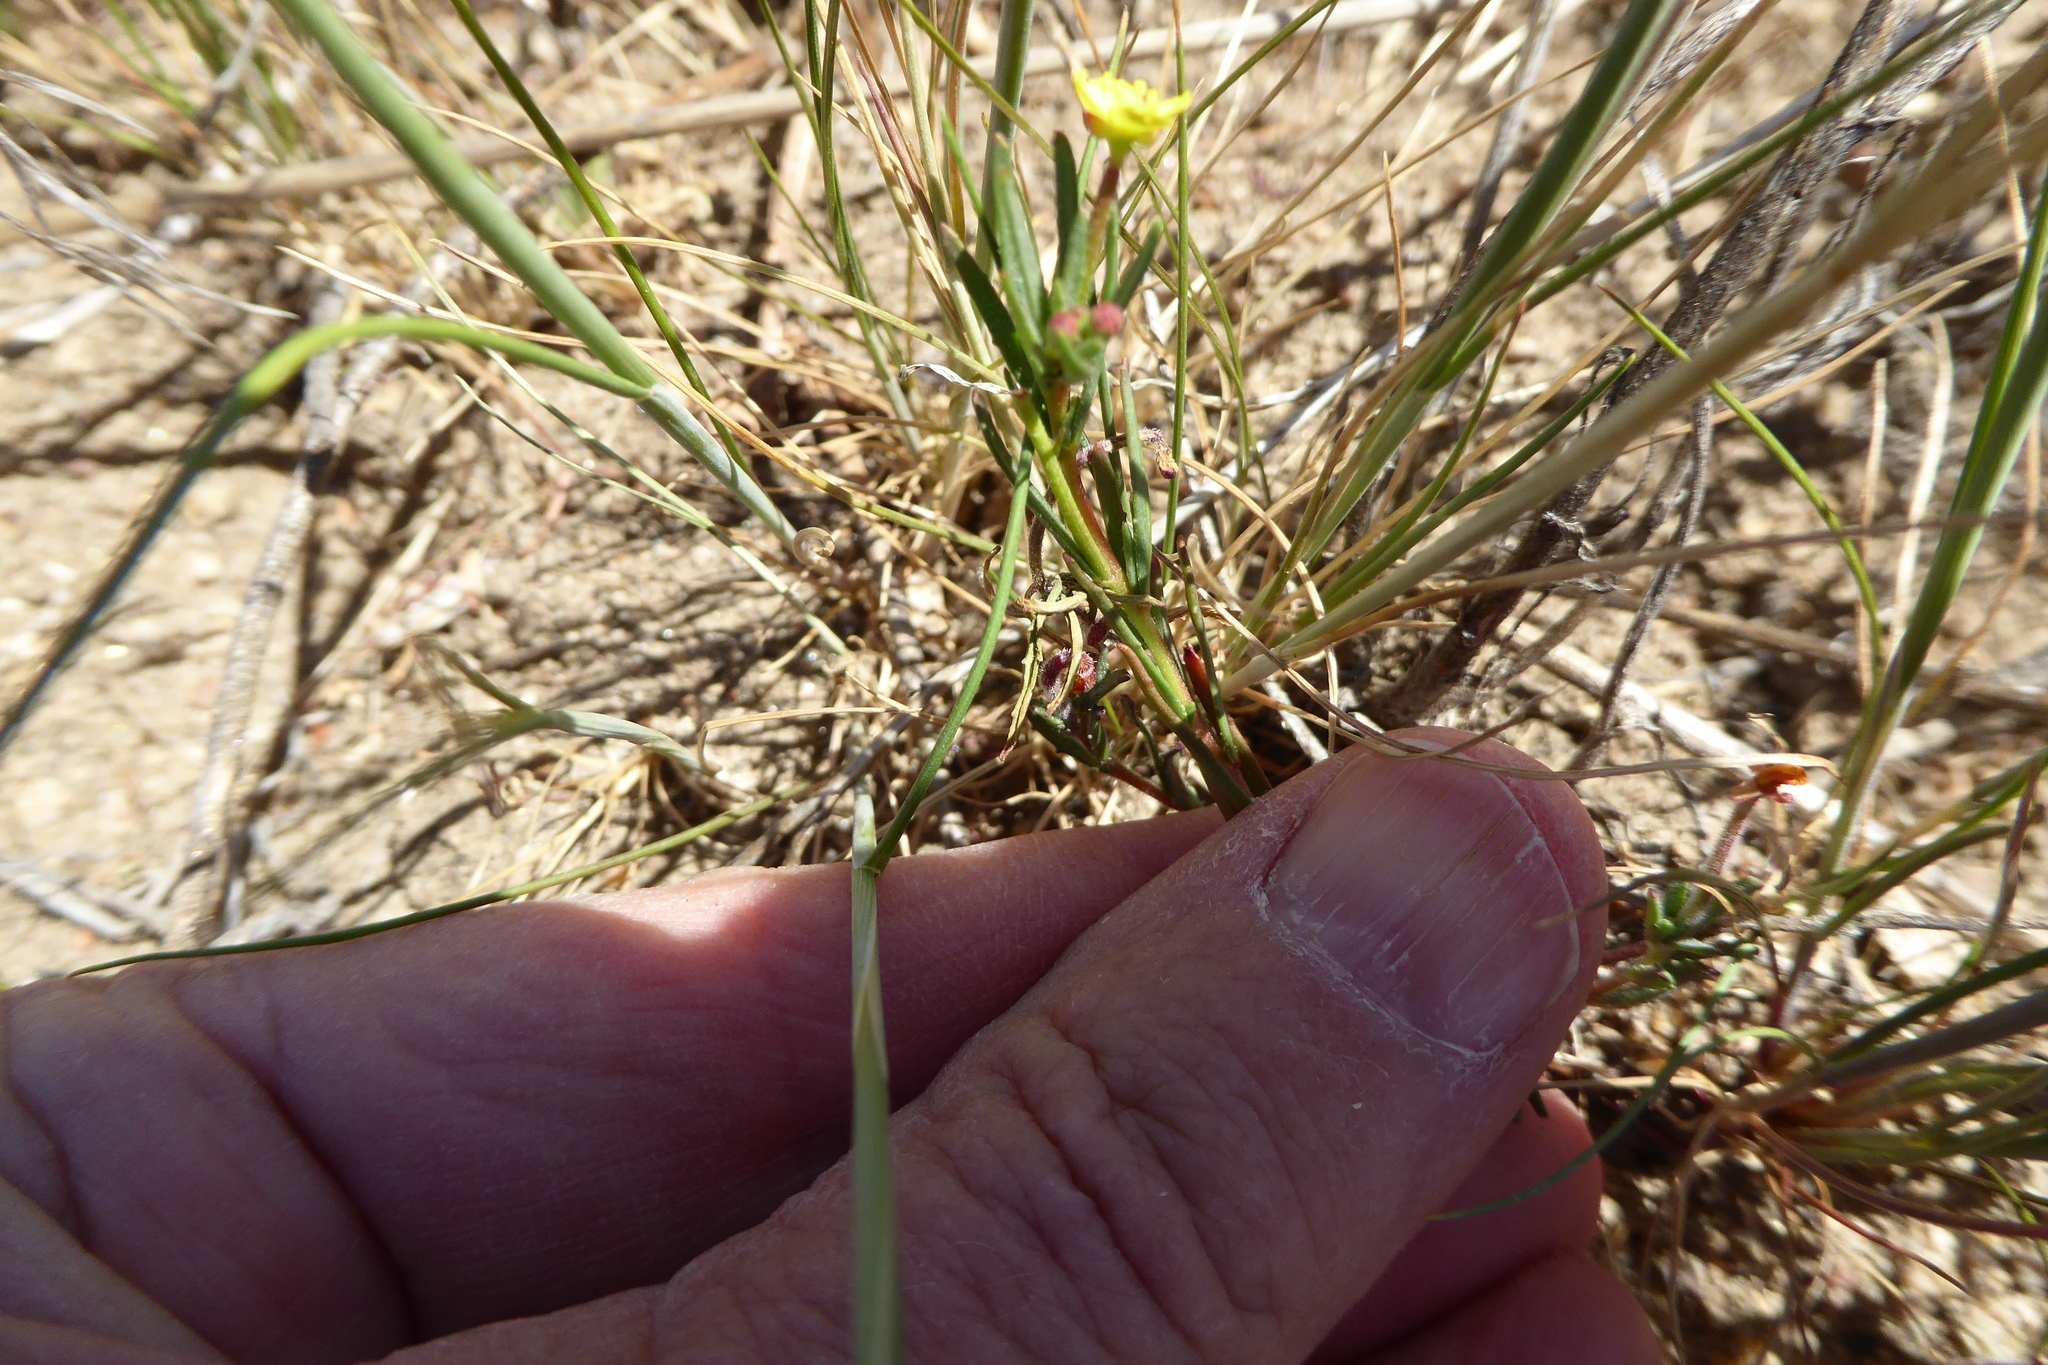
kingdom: Plantae
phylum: Tracheophyta
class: Magnoliopsida
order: Myrtales
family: Onagraceae
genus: Camissonia
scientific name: Camissonia strigulosa
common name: Contorted-primrose
